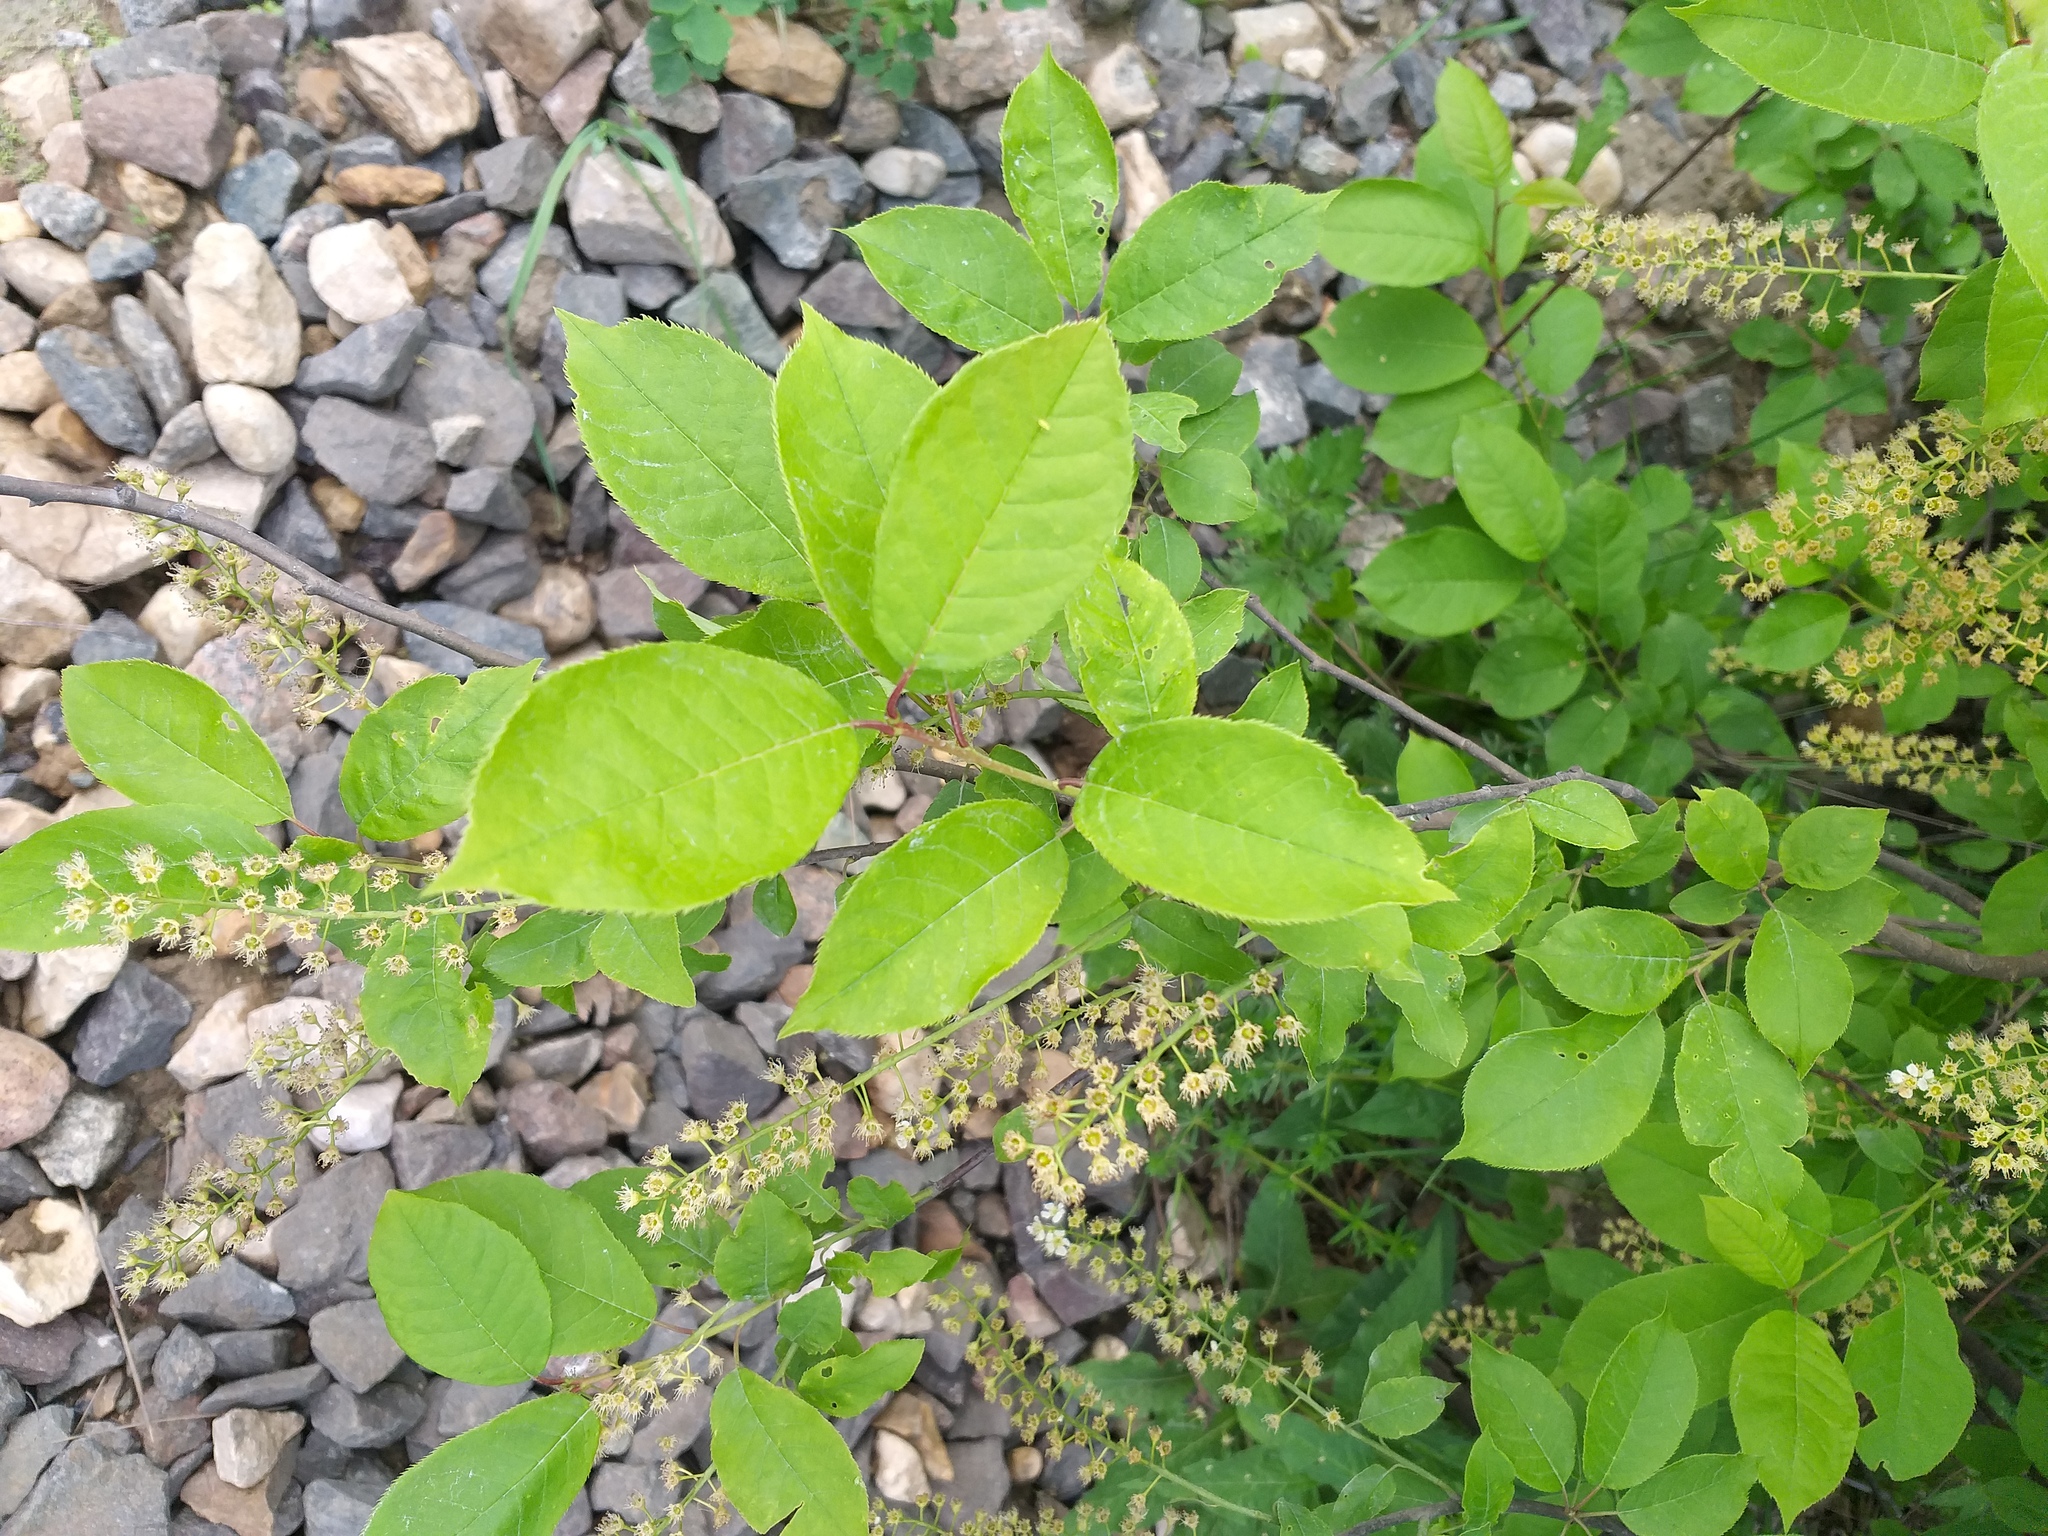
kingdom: Plantae
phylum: Tracheophyta
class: Magnoliopsida
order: Rosales
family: Rosaceae
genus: Prunus
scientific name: Prunus virginiana
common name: Chokecherry
